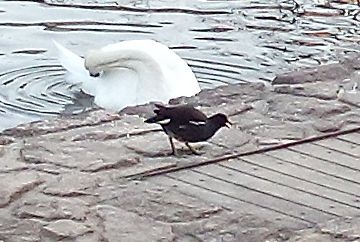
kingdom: Animalia
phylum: Chordata
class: Aves
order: Gruiformes
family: Rallidae
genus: Gallinula
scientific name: Gallinula chloropus
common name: Common moorhen
